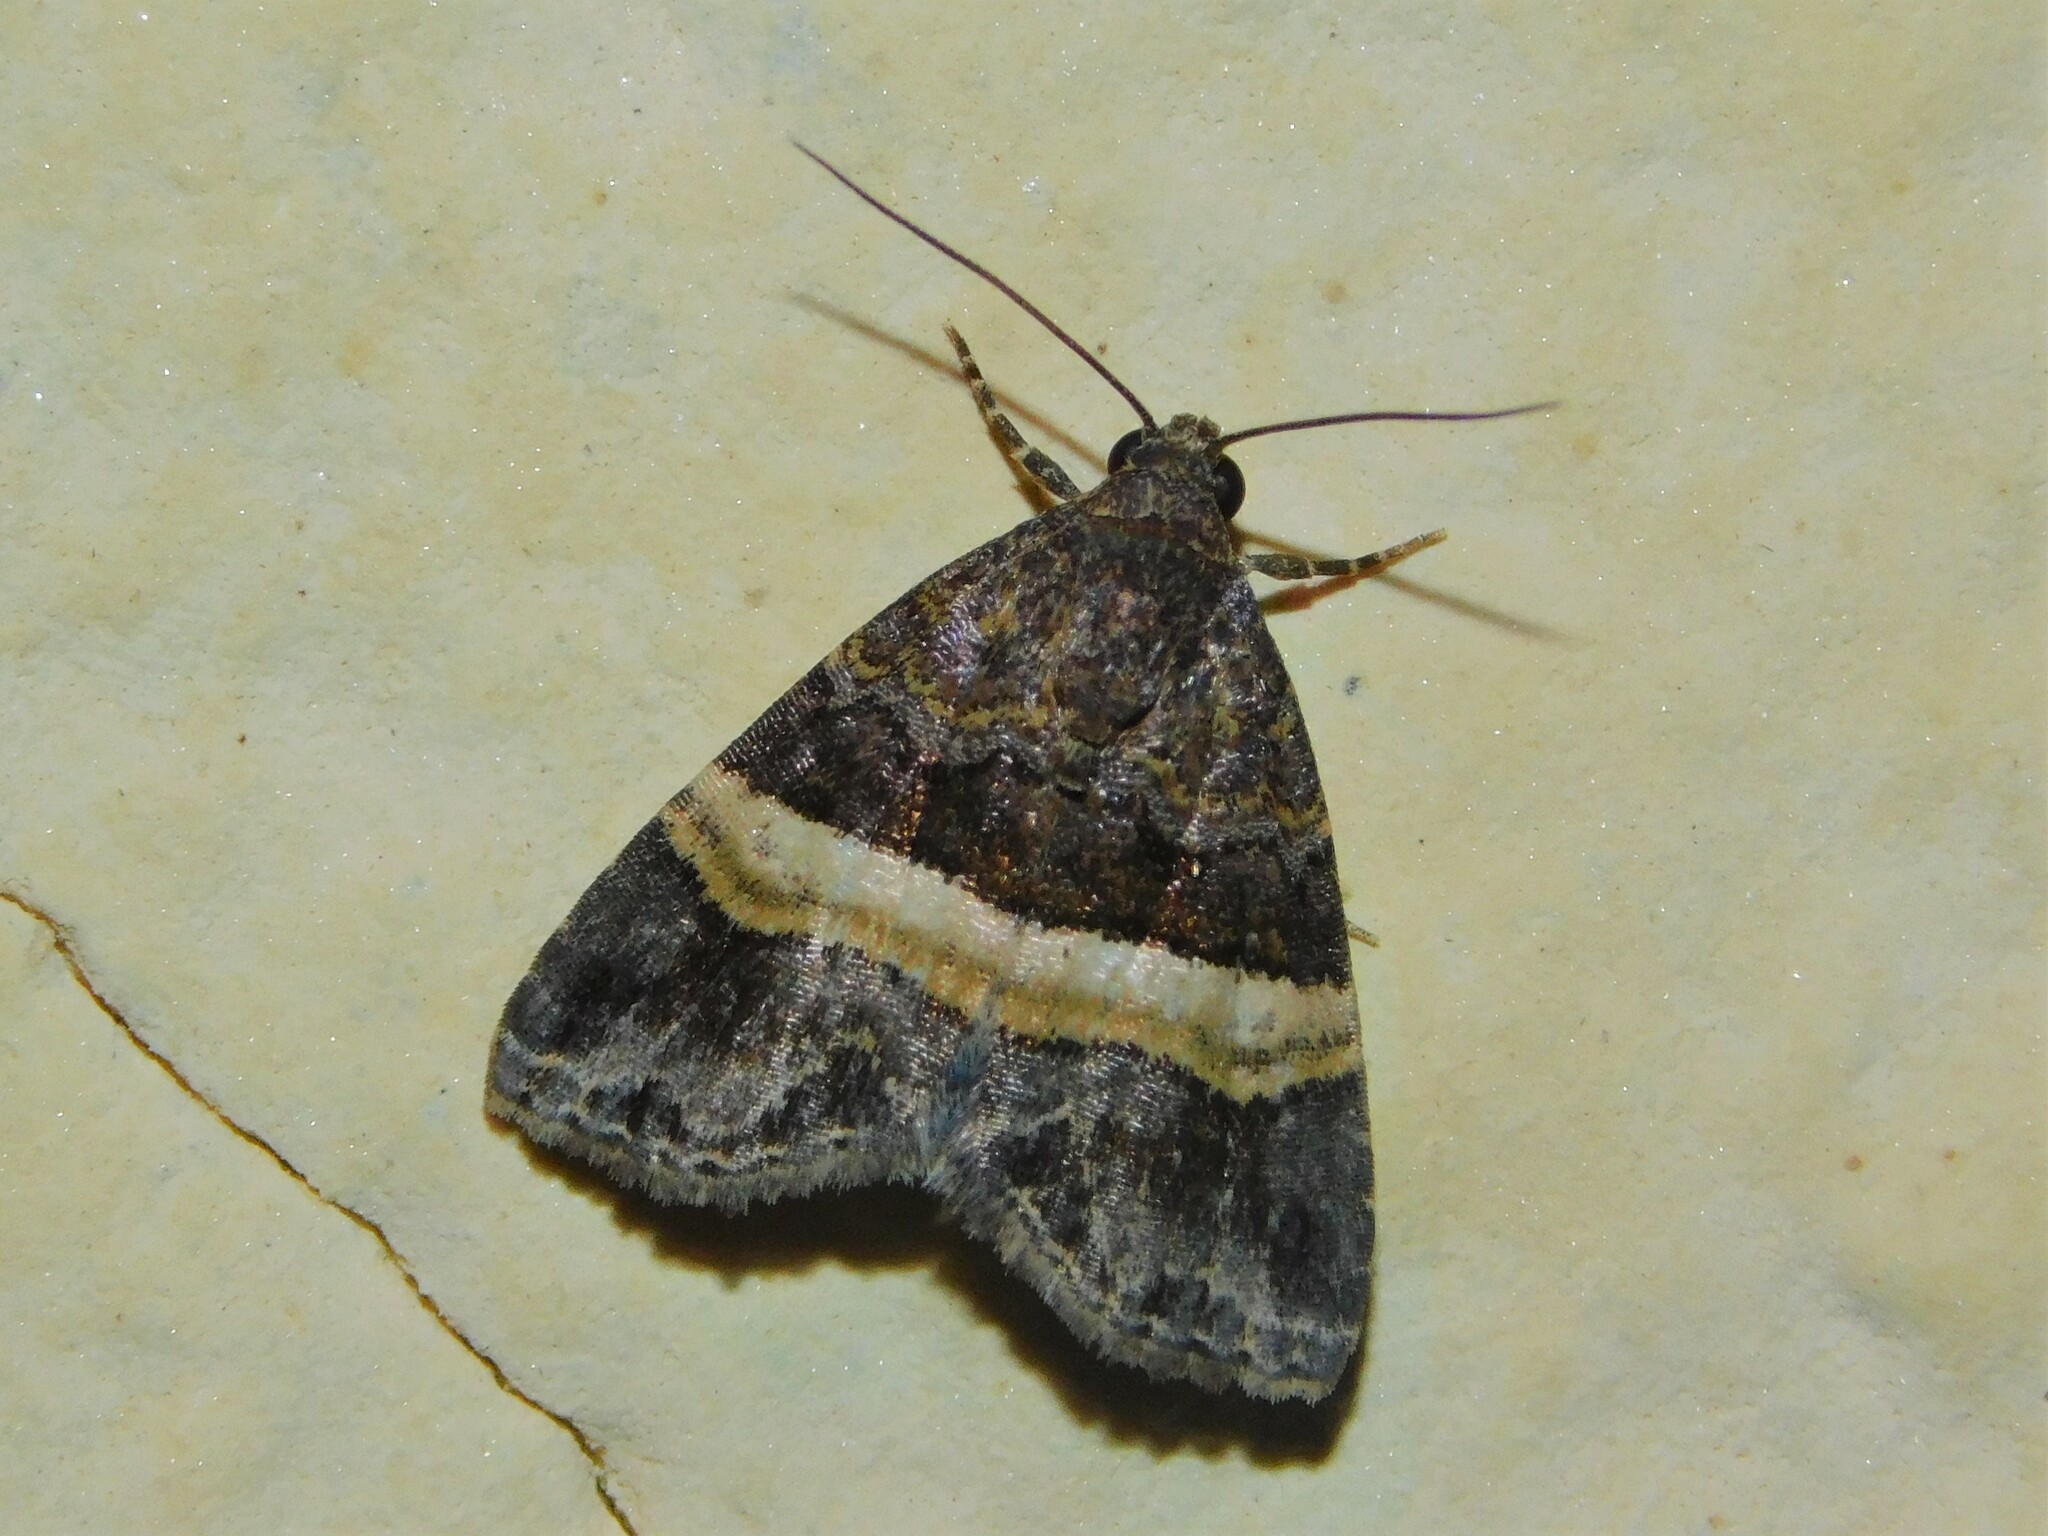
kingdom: Animalia
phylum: Arthropoda
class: Insecta
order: Lepidoptera
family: Noctuidae
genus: Ozarba
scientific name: Ozarba domina
